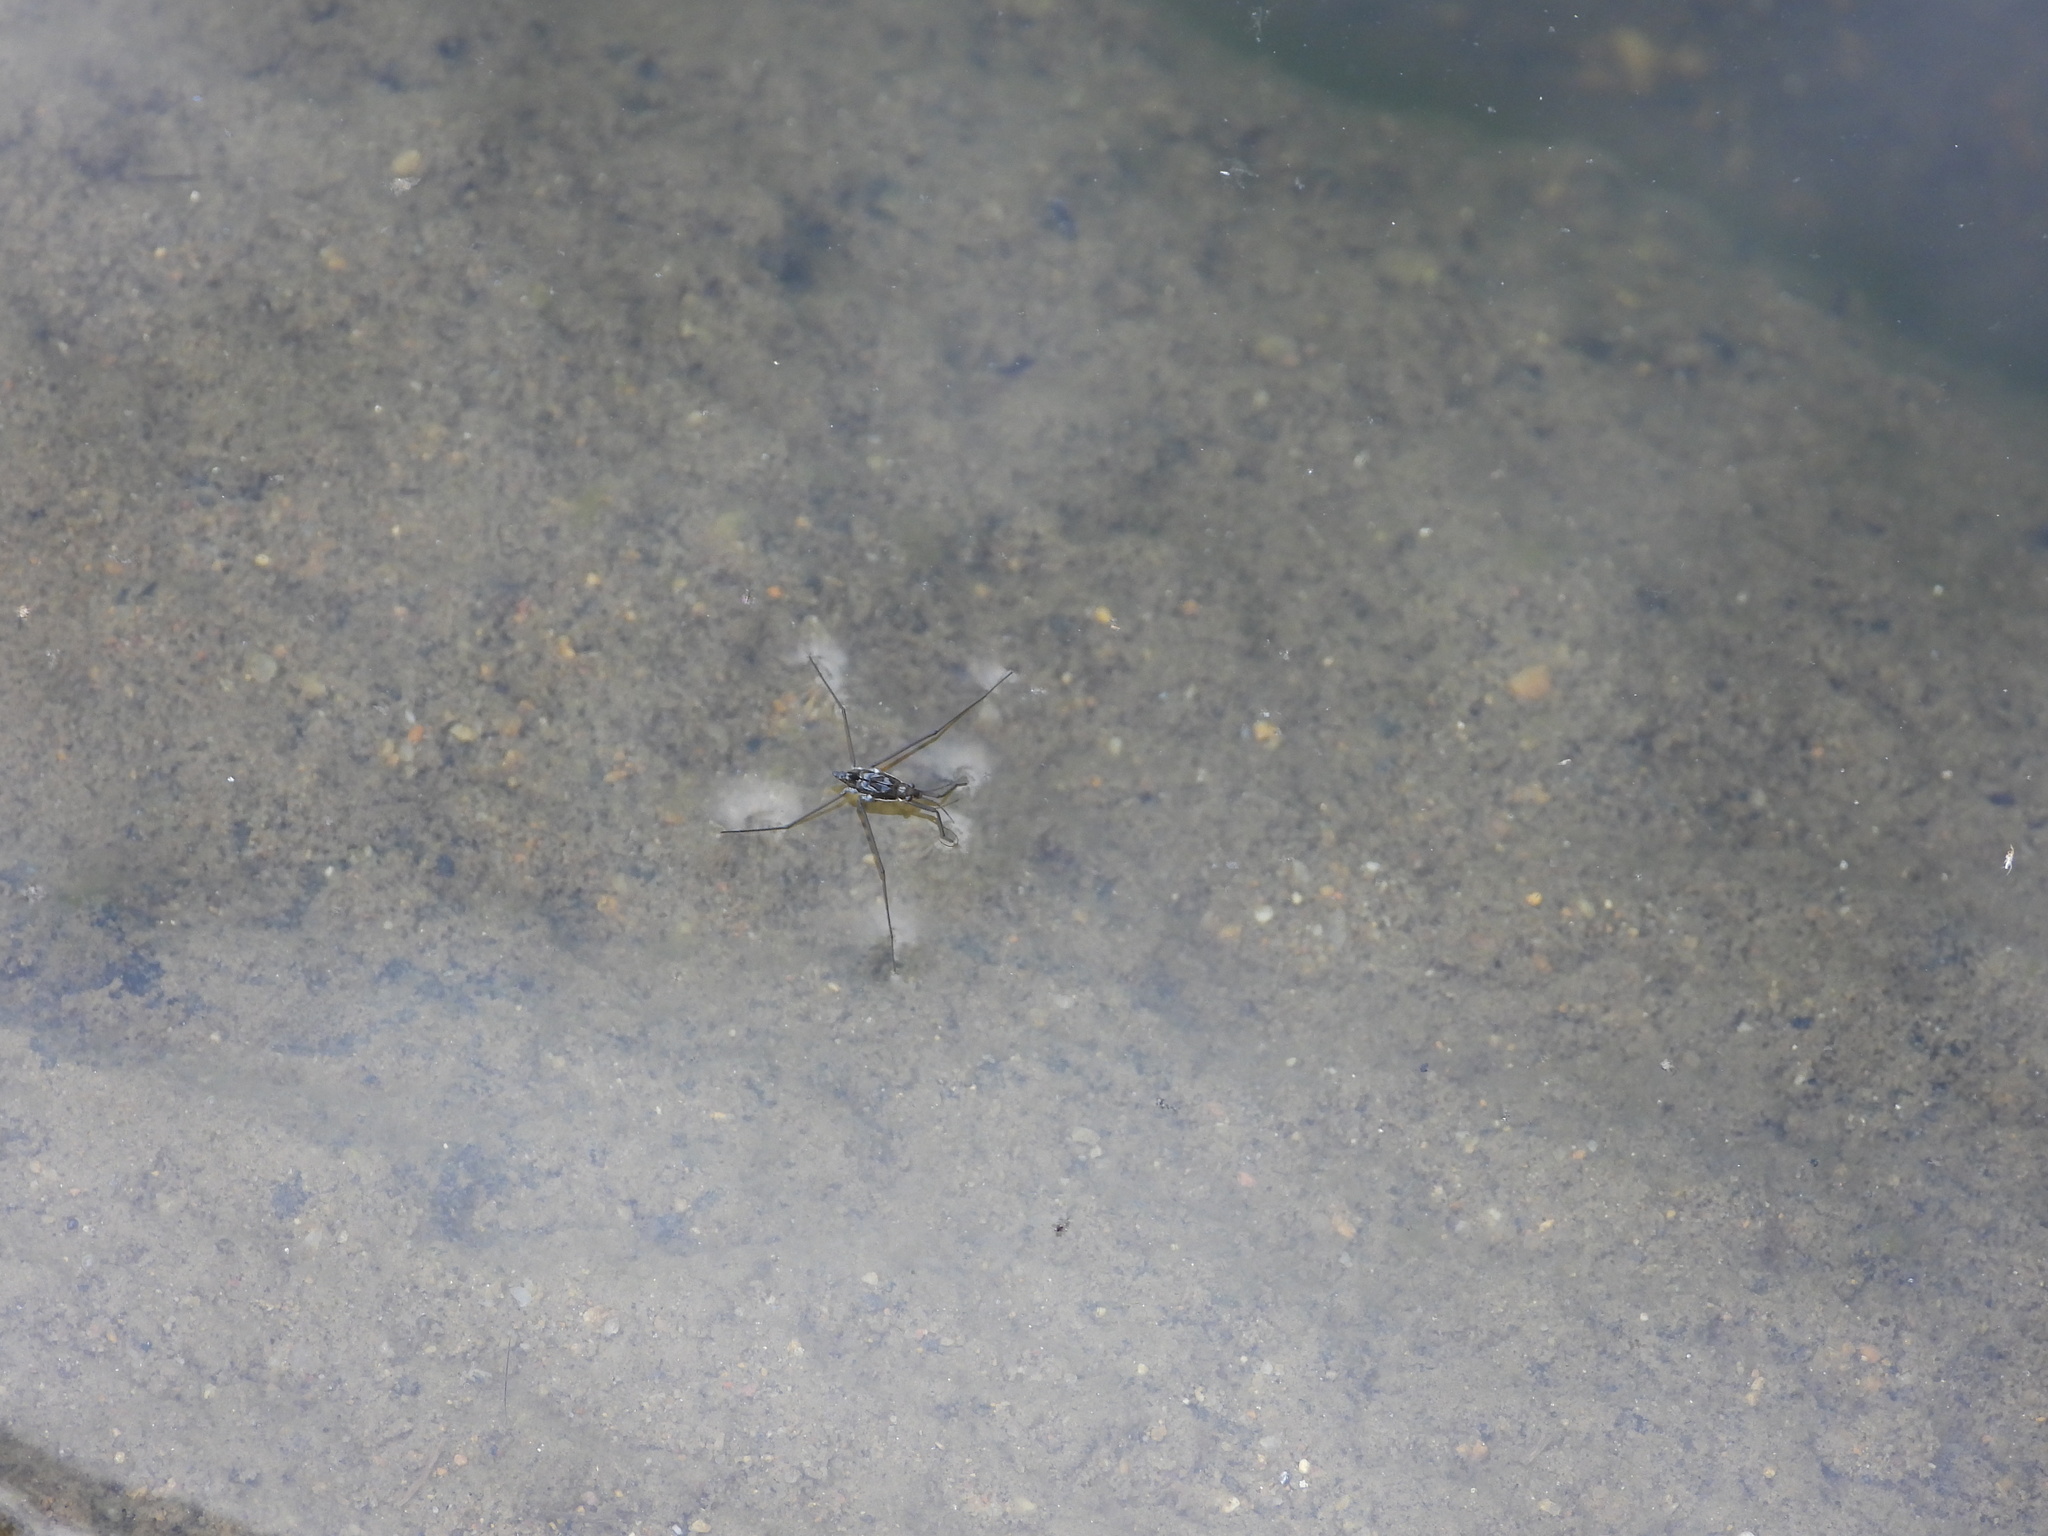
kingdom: Animalia
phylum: Arthropoda
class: Insecta
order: Hemiptera
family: Gerridae
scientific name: Gerridae
